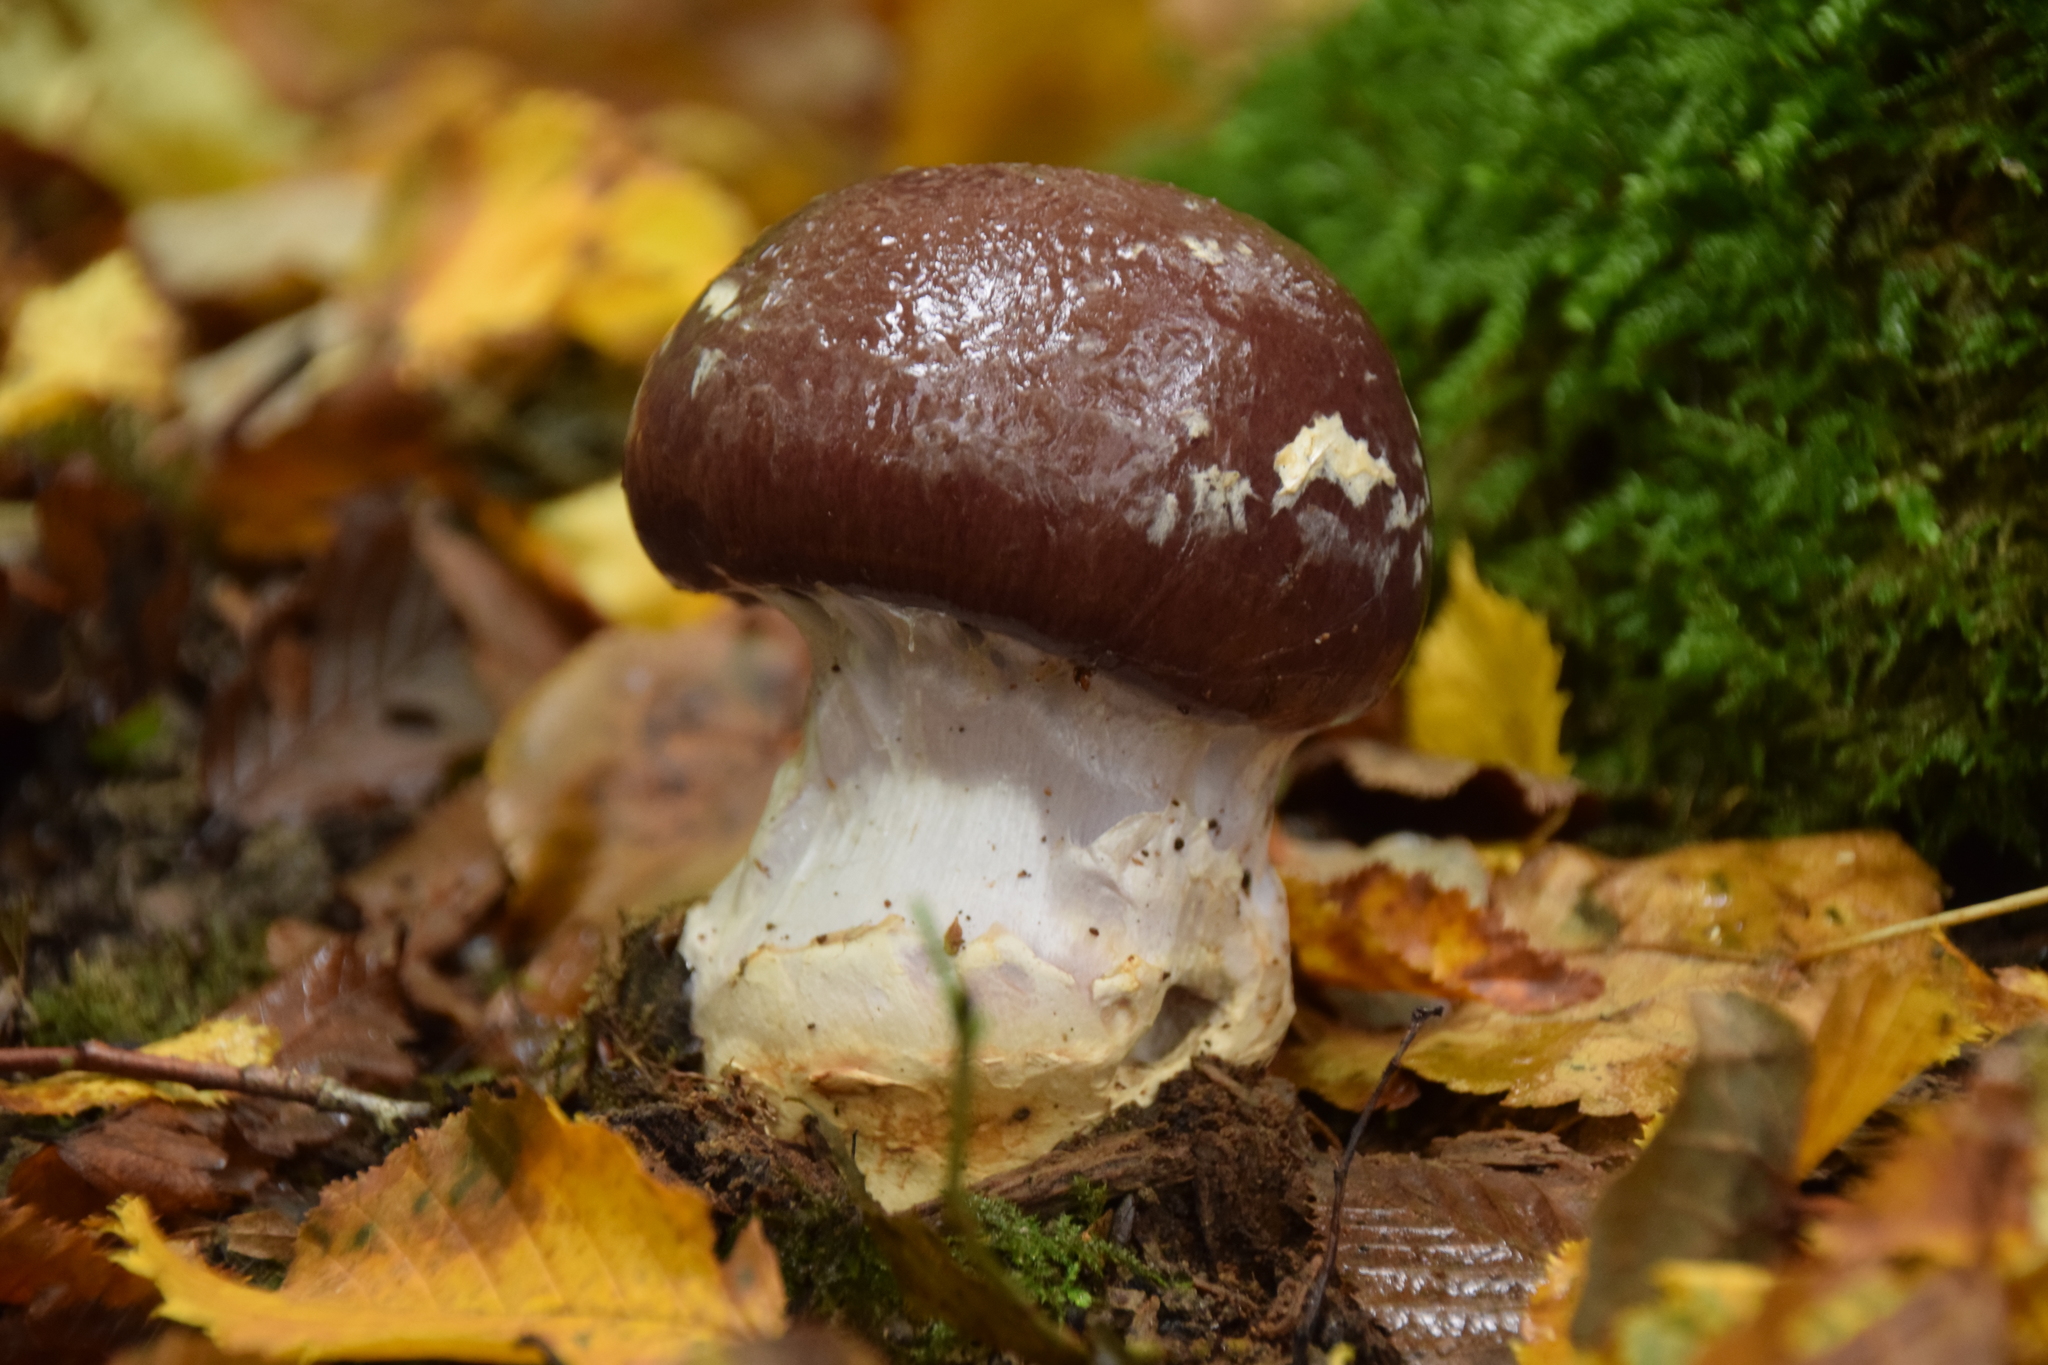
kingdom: Fungi
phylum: Basidiomycota
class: Agaricomycetes
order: Agaricales
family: Cortinariaceae
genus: Cortinarius
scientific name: Cortinarius praestans
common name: Goliath webcap
